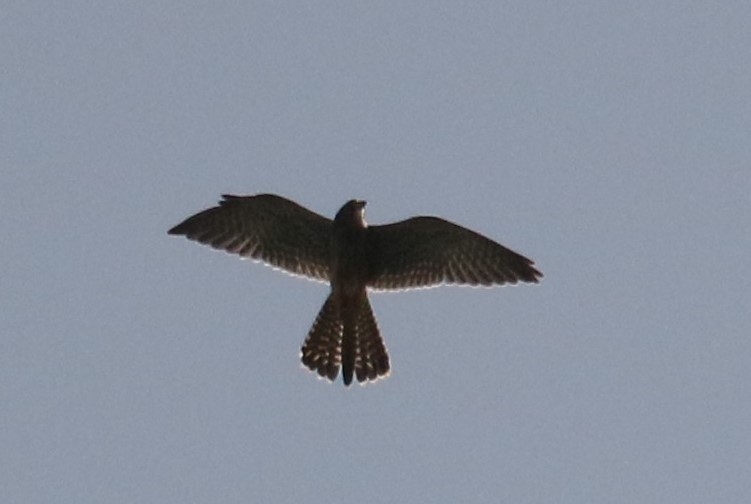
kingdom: Animalia
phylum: Chordata
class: Aves
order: Falconiformes
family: Falconidae
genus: Falco
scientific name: Falco tinnunculus
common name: Common kestrel
